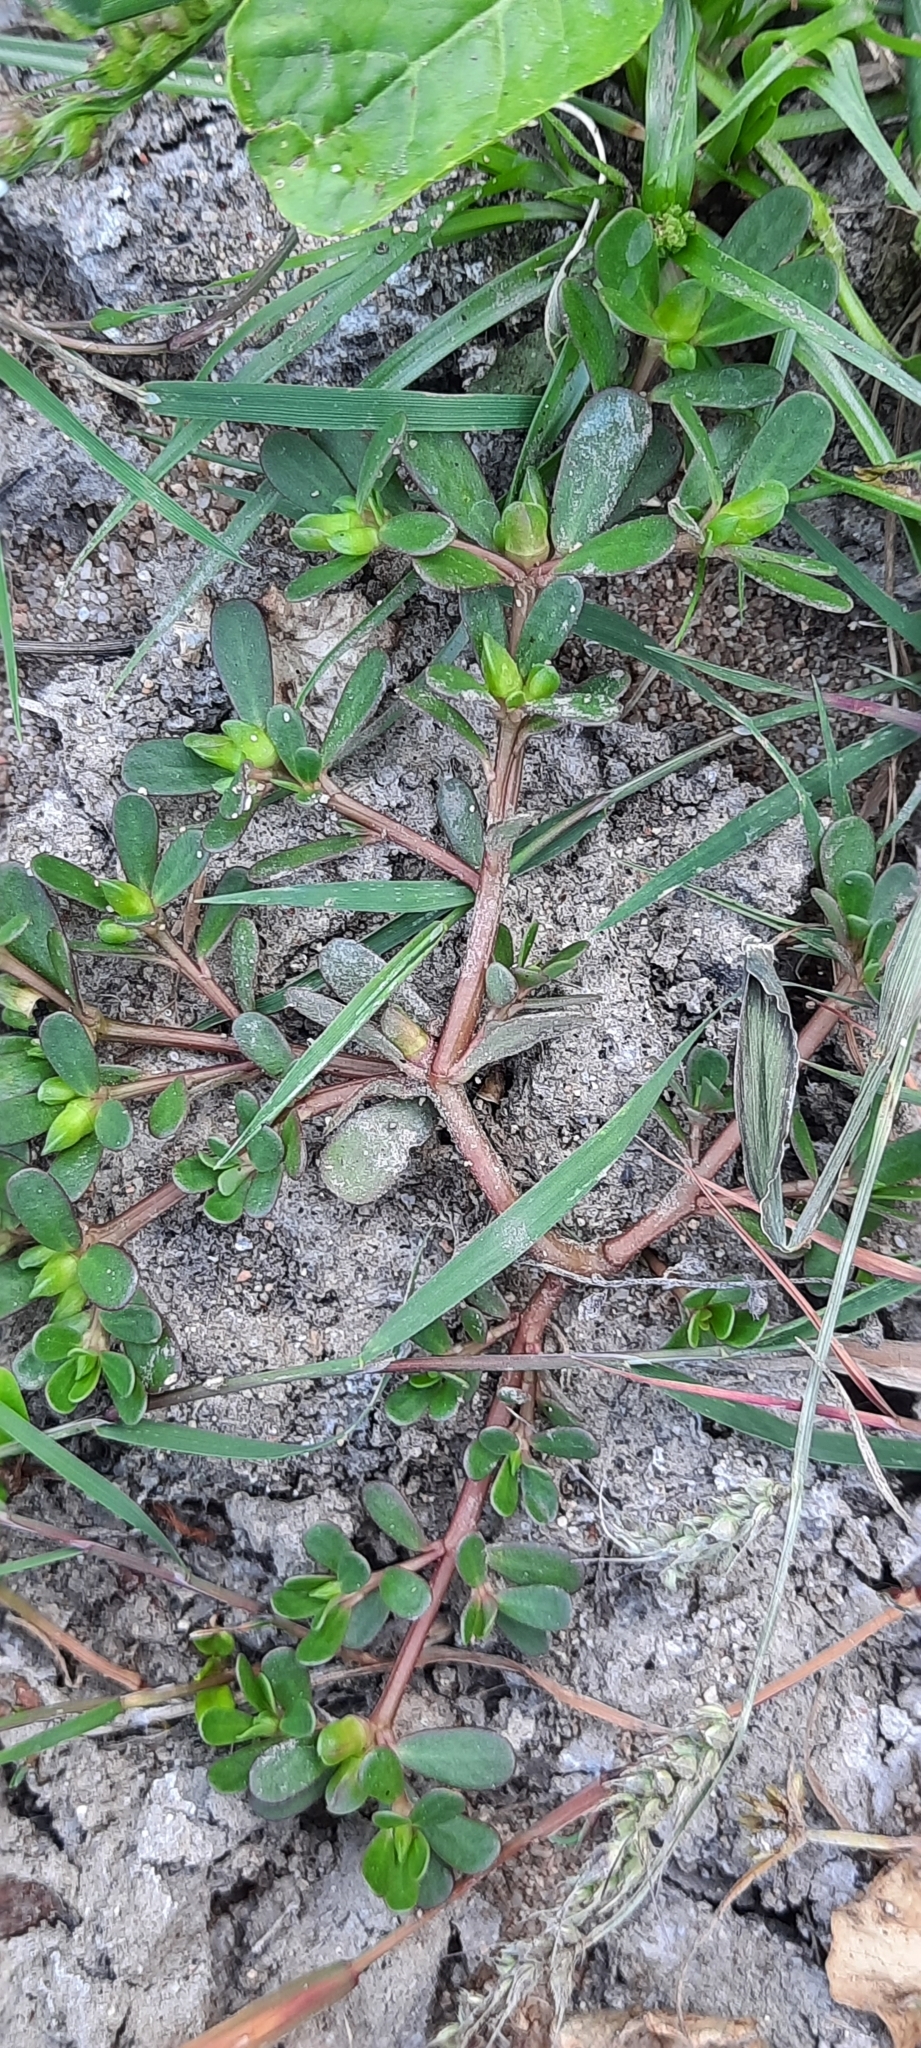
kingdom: Plantae
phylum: Tracheophyta
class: Magnoliopsida
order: Caryophyllales
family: Portulacaceae
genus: Portulaca
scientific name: Portulaca oleracea
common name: Common purslane
